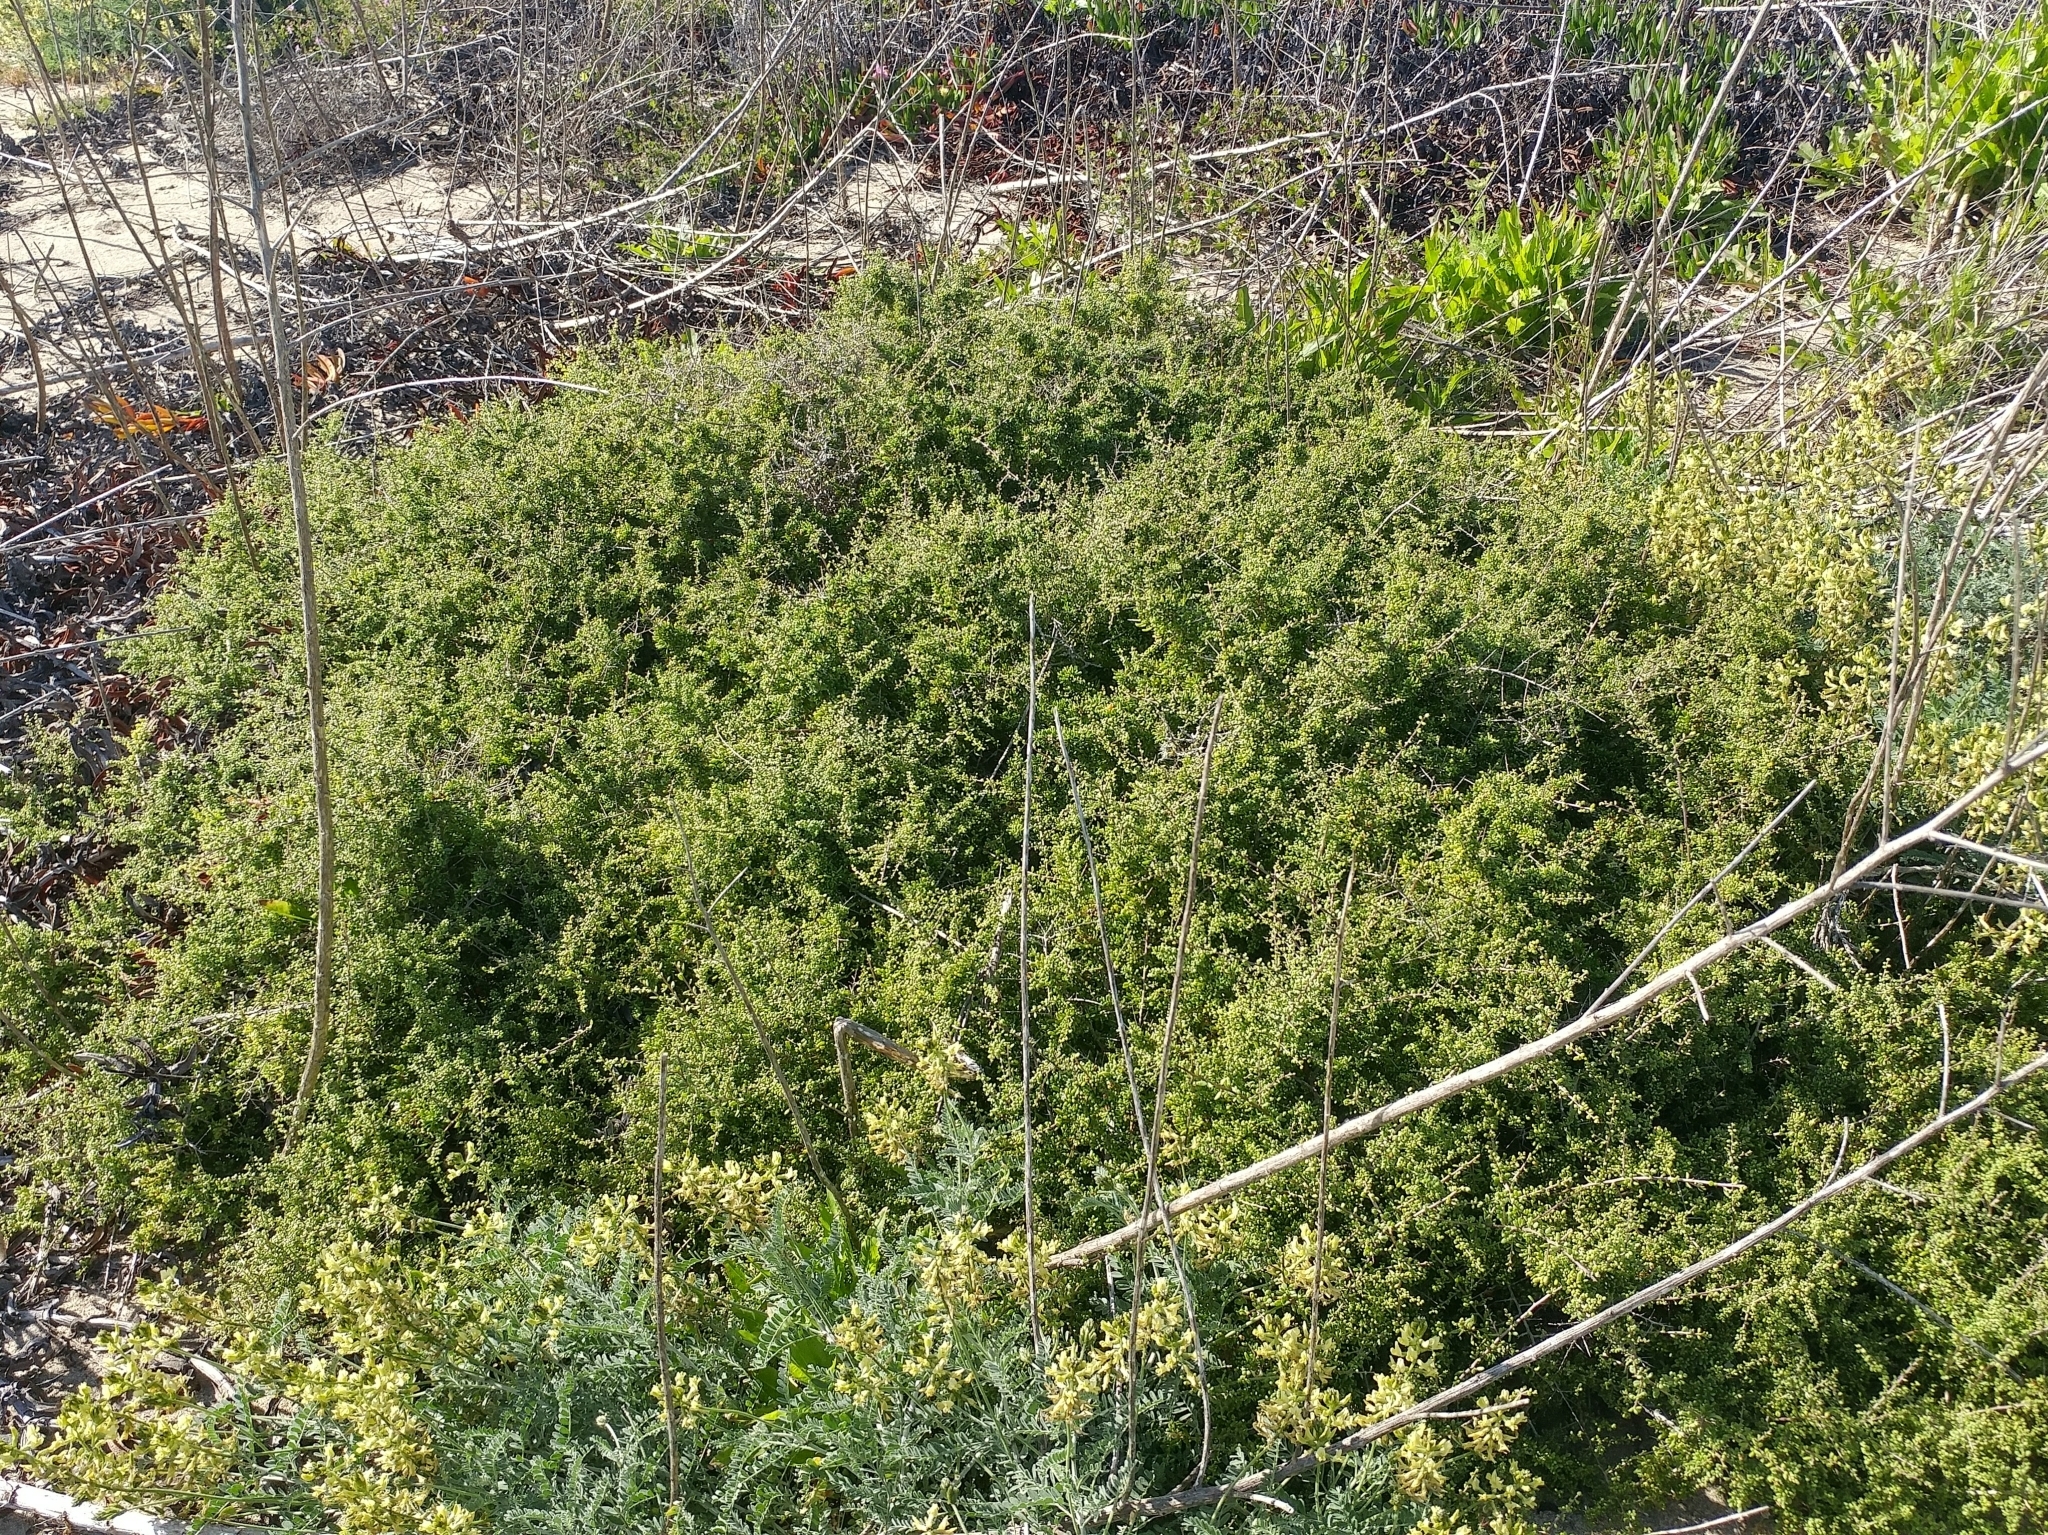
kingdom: Plantae
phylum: Tracheophyta
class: Magnoliopsida
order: Solanales
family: Solanaceae
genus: Lycium
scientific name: Lycium californicum
